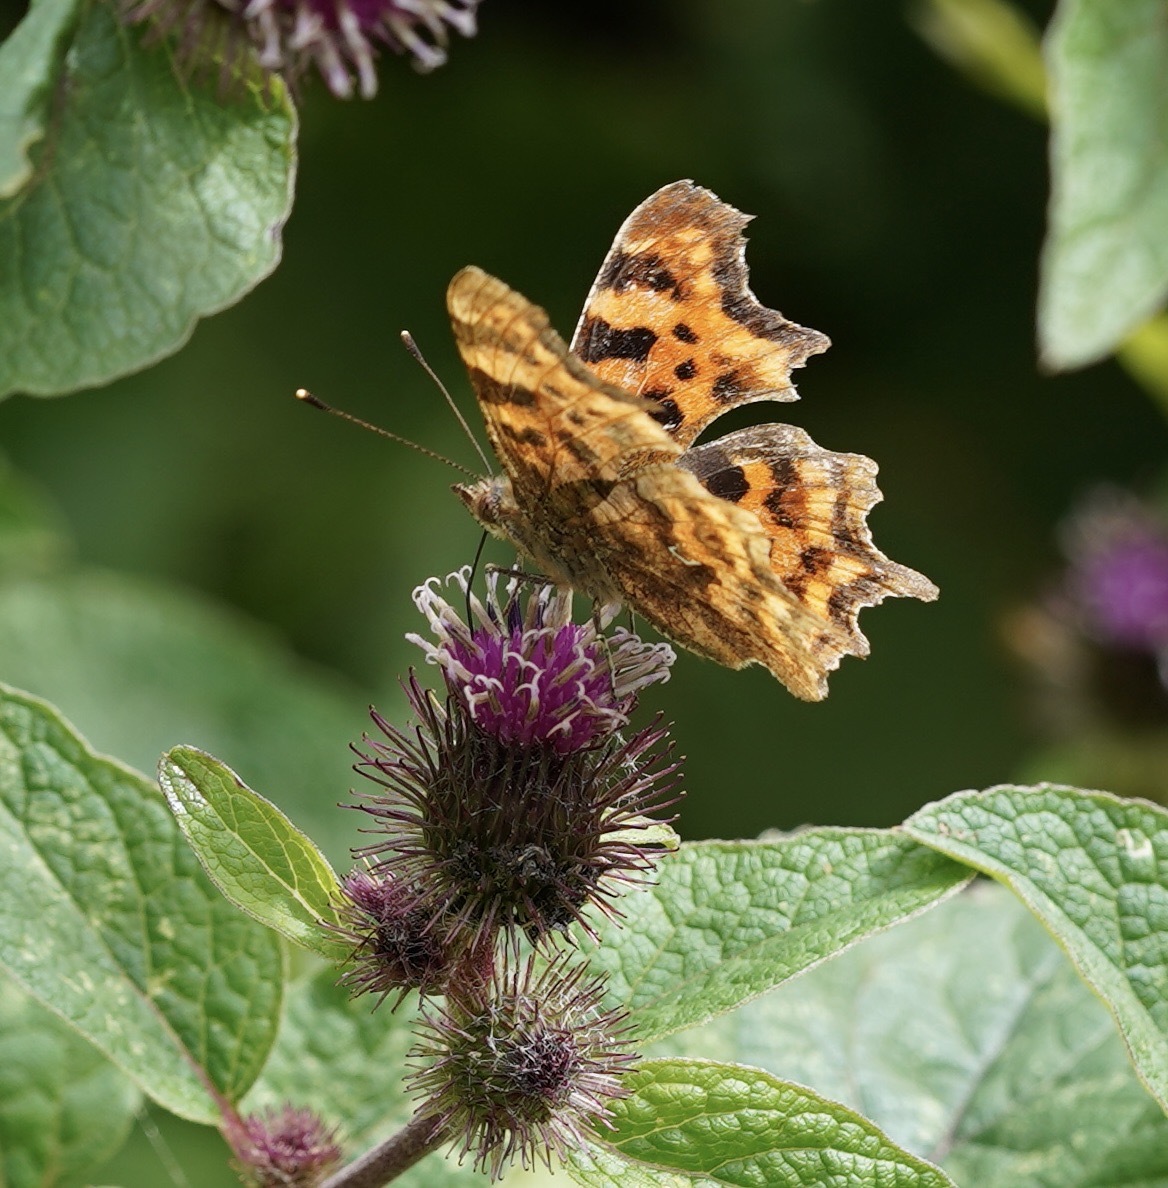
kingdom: Animalia
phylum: Arthropoda
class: Insecta
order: Lepidoptera
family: Nymphalidae
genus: Polygonia
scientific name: Polygonia c-album
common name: Comma
